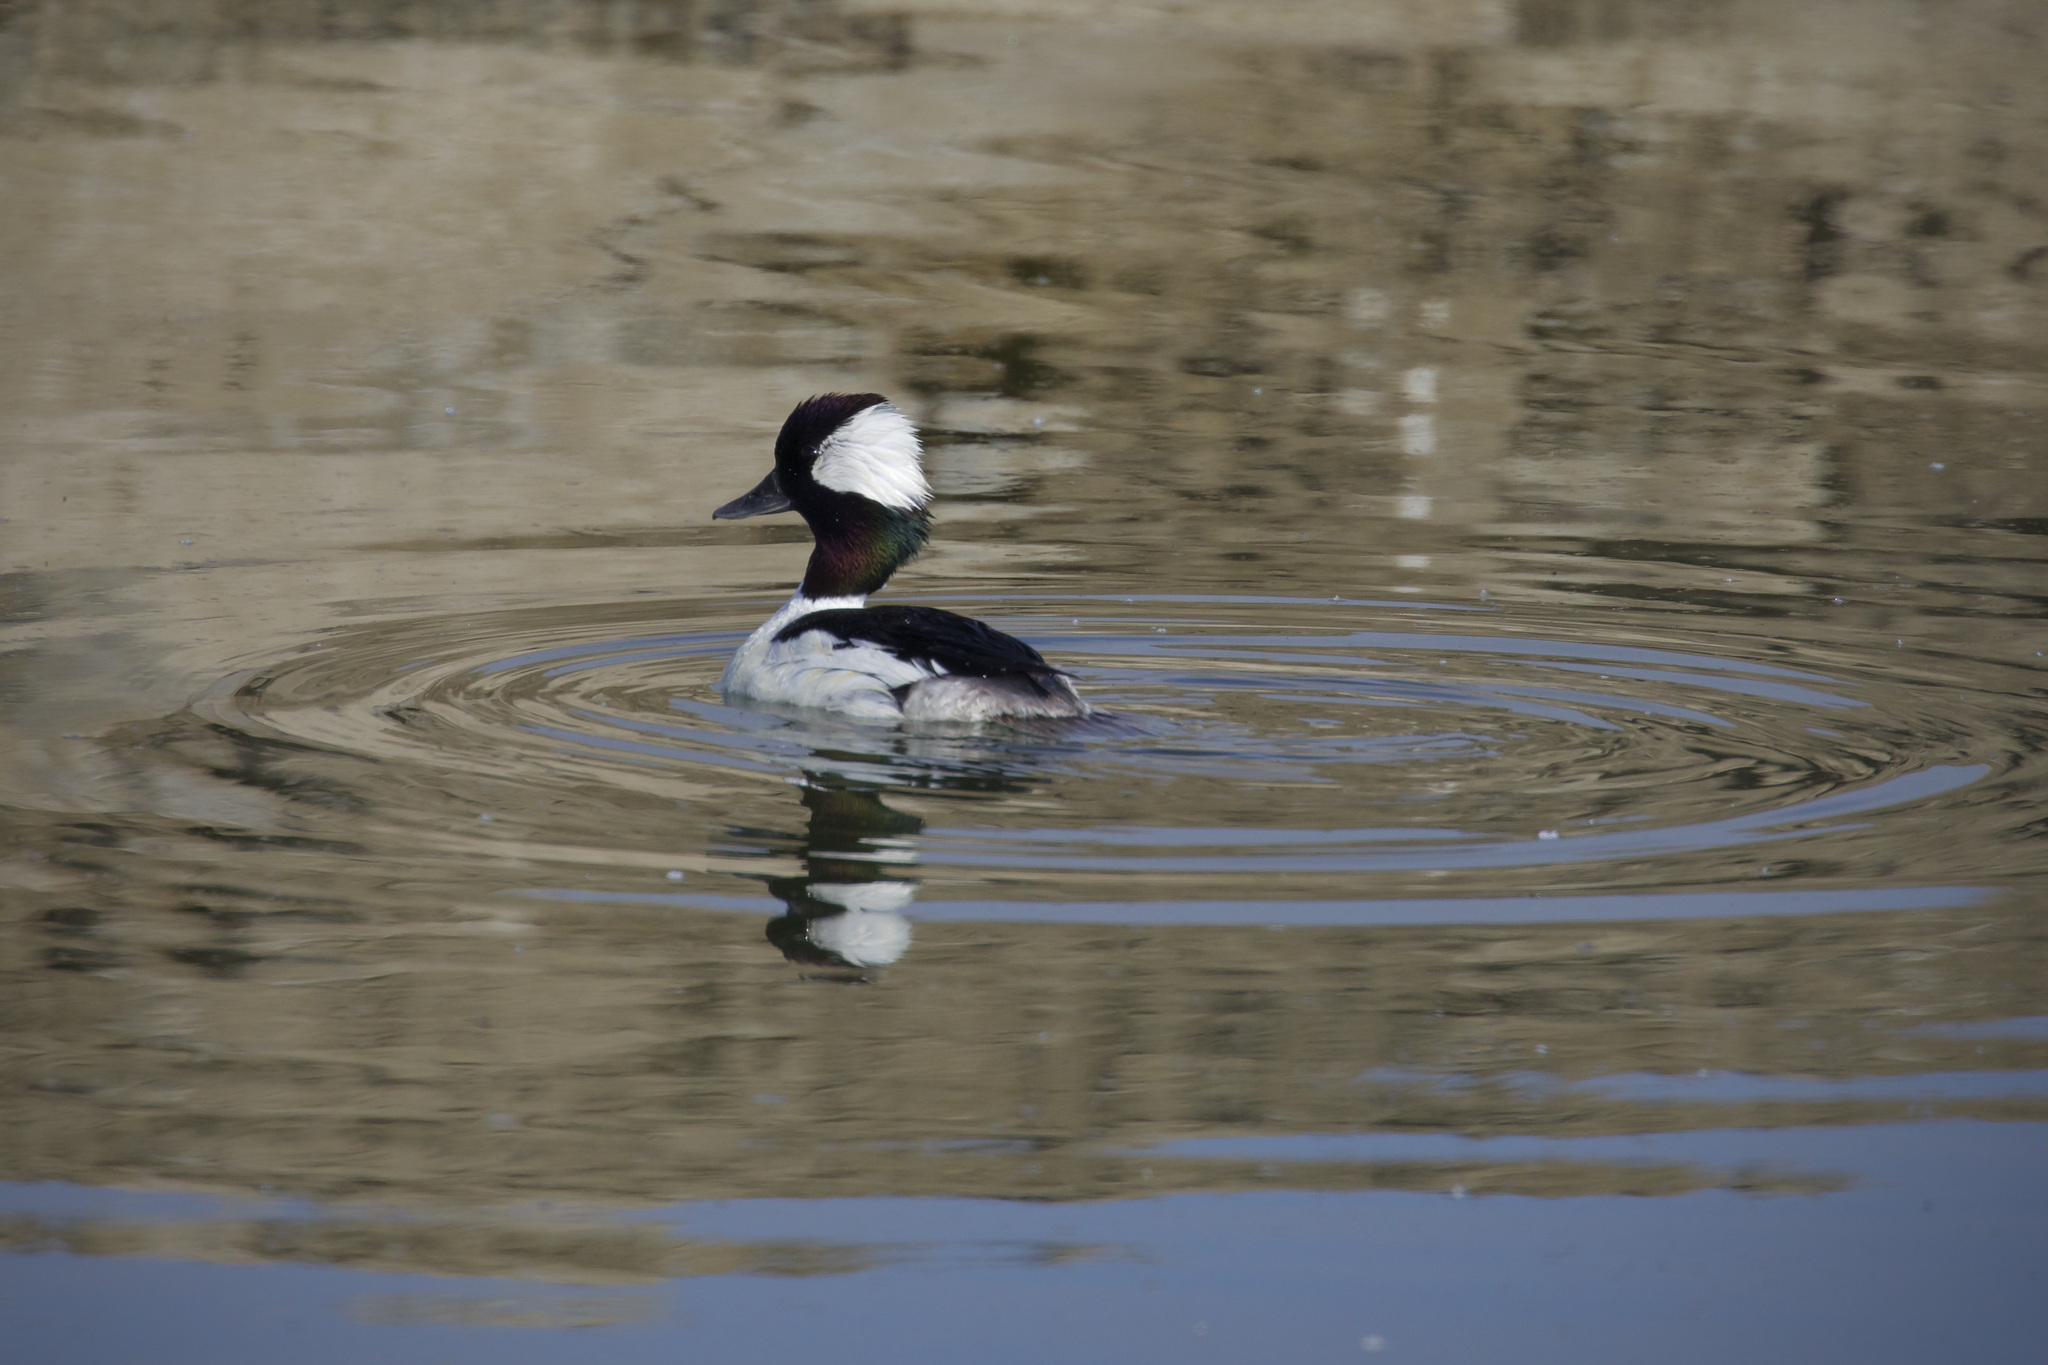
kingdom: Animalia
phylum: Chordata
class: Aves
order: Anseriformes
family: Anatidae
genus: Bucephala
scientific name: Bucephala albeola
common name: Bufflehead
